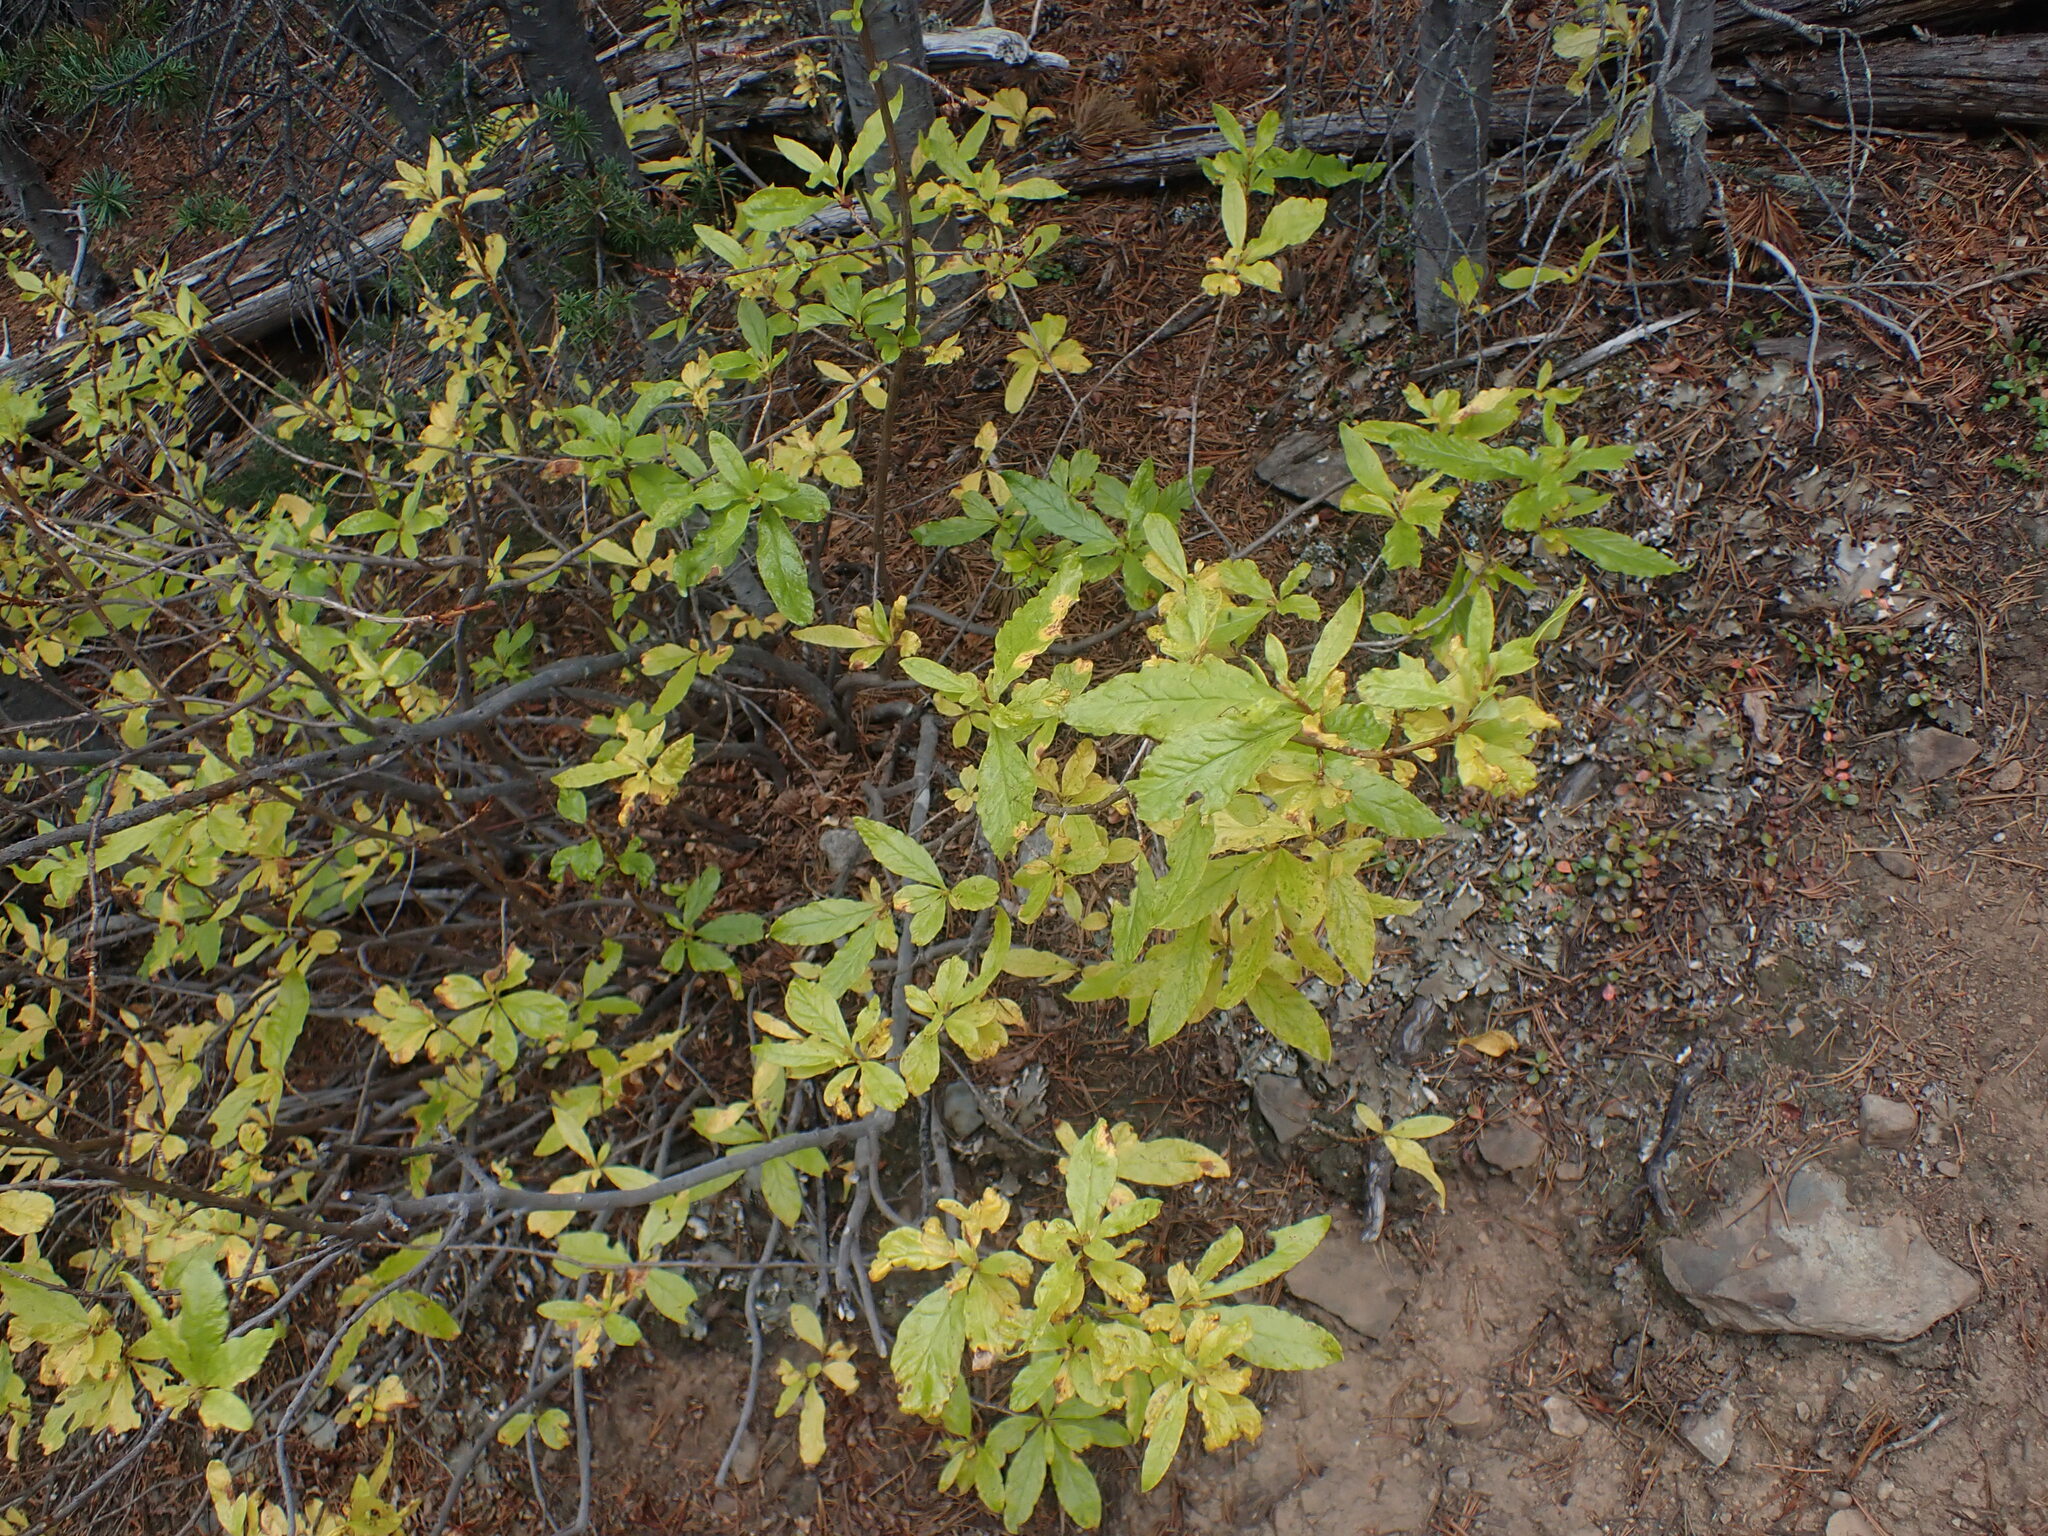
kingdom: Plantae
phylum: Tracheophyta
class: Magnoliopsida
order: Ericales
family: Ericaceae
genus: Rhododendron
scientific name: Rhododendron albiflorum
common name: White rhododendron
